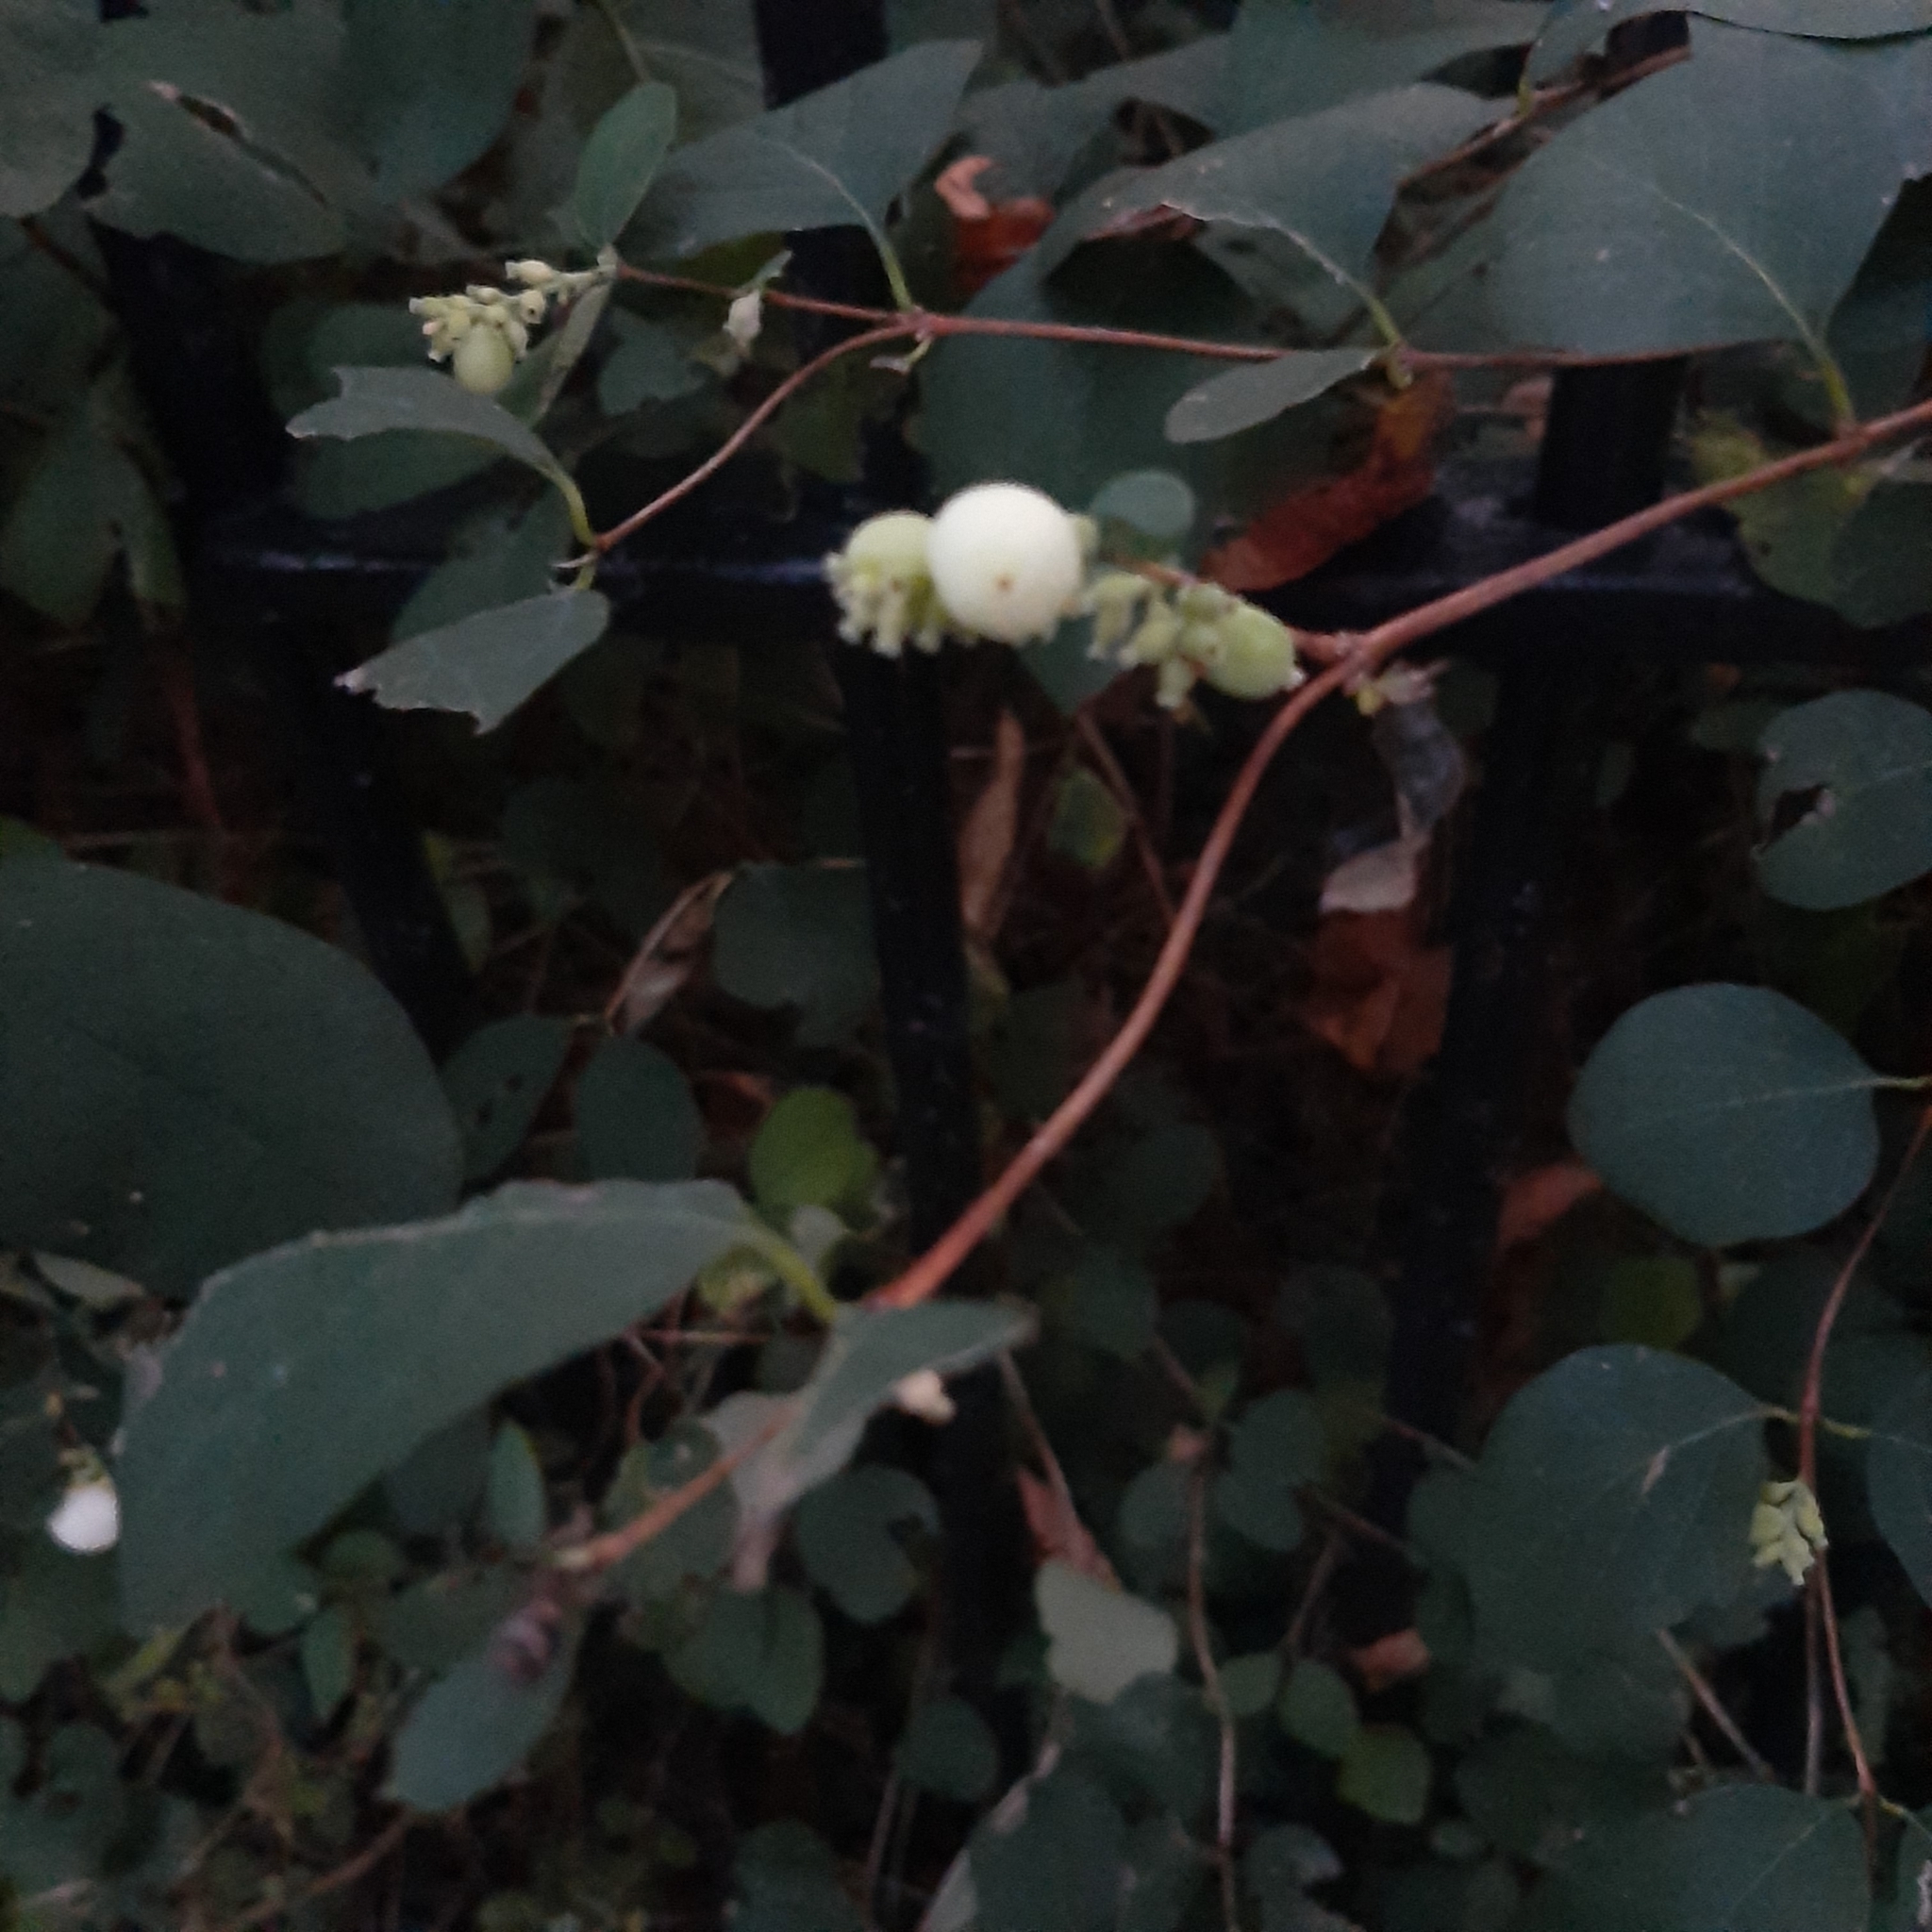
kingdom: Plantae
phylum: Tracheophyta
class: Magnoliopsida
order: Dipsacales
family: Caprifoliaceae
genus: Symphoricarpos
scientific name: Symphoricarpos albus
